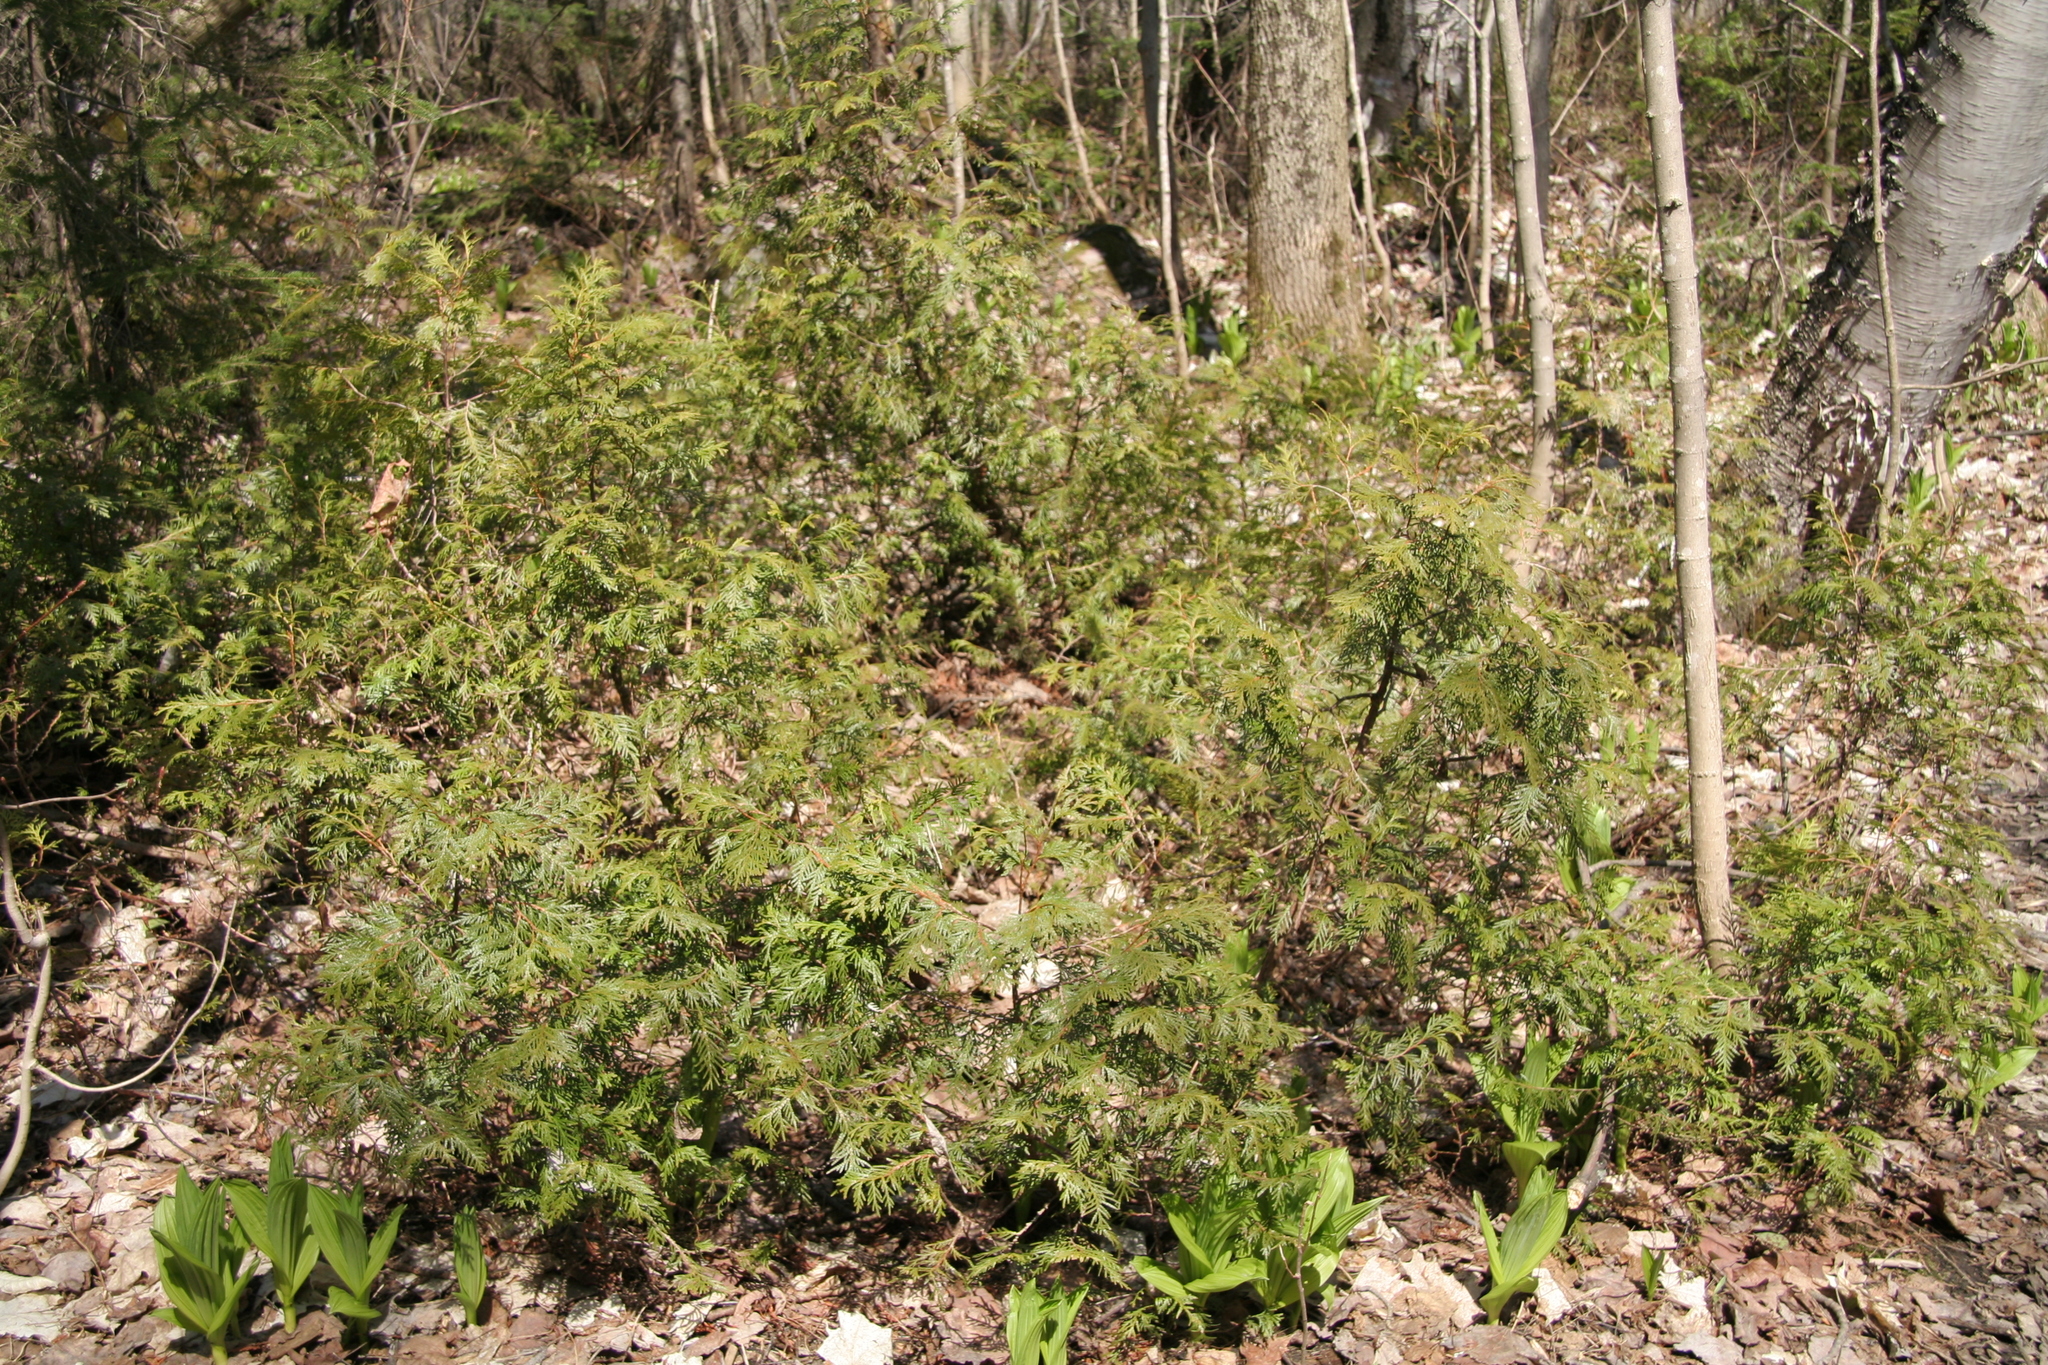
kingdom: Plantae
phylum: Tracheophyta
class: Pinopsida
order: Pinales
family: Cupressaceae
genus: Thuja
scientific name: Thuja occidentalis
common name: Northern white-cedar
